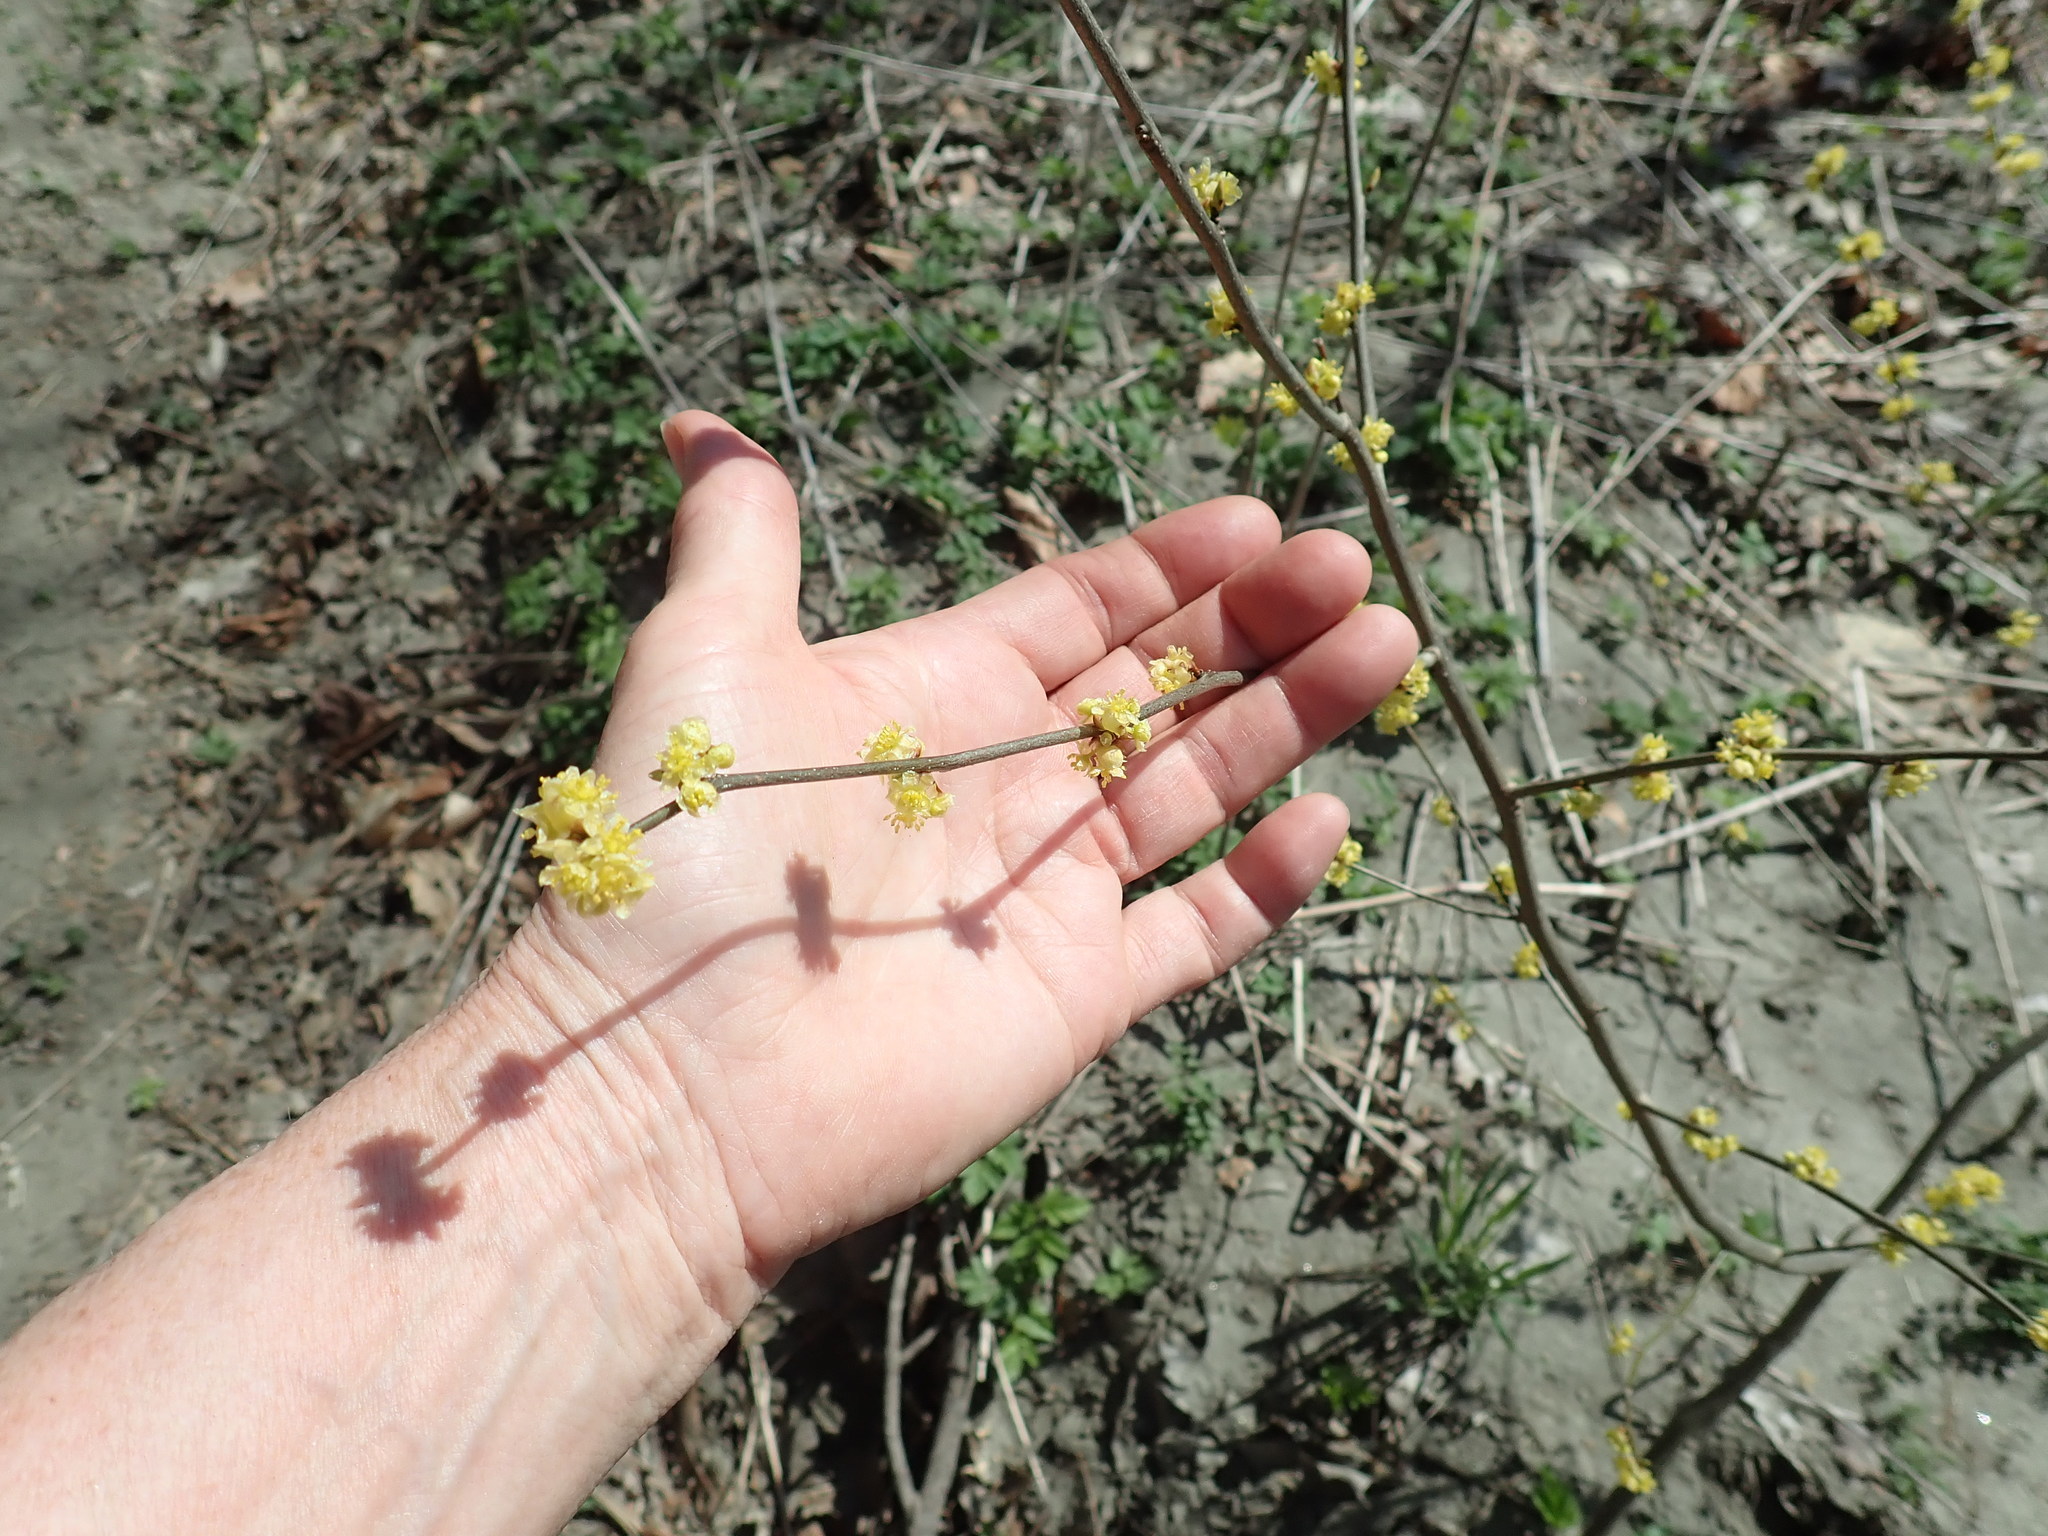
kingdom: Plantae
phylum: Tracheophyta
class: Magnoliopsida
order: Laurales
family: Lauraceae
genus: Lindera
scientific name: Lindera benzoin
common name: Spicebush
